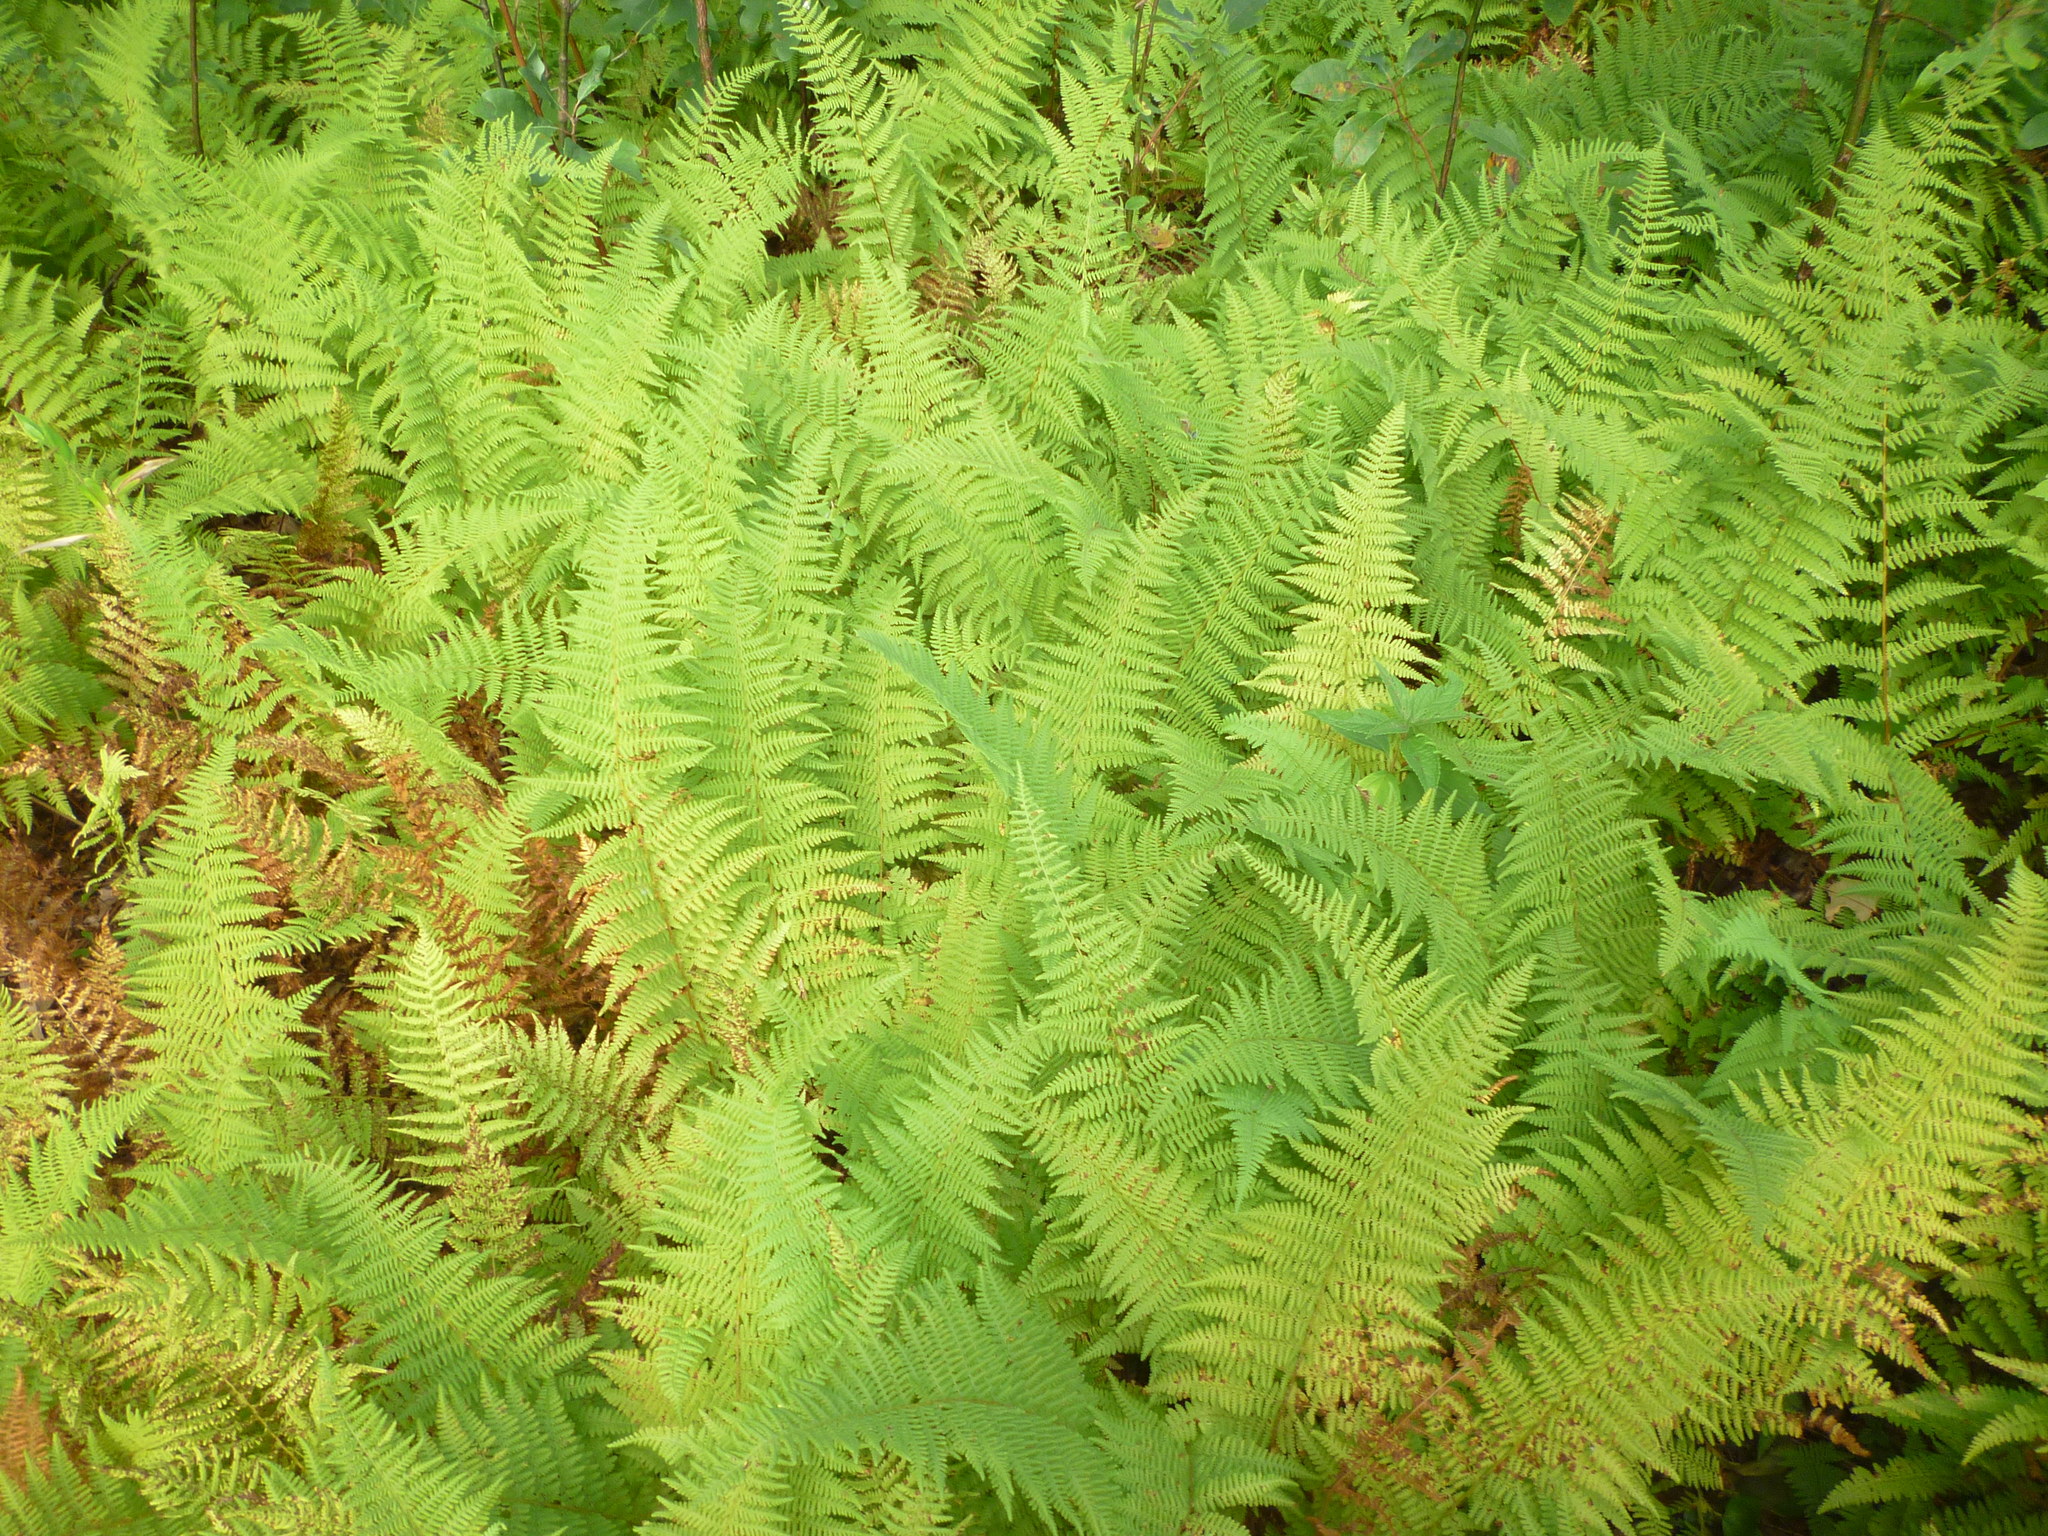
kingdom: Plantae
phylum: Tracheophyta
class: Polypodiopsida
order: Polypodiales
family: Dennstaedtiaceae
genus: Sitobolium
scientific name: Sitobolium punctilobum
